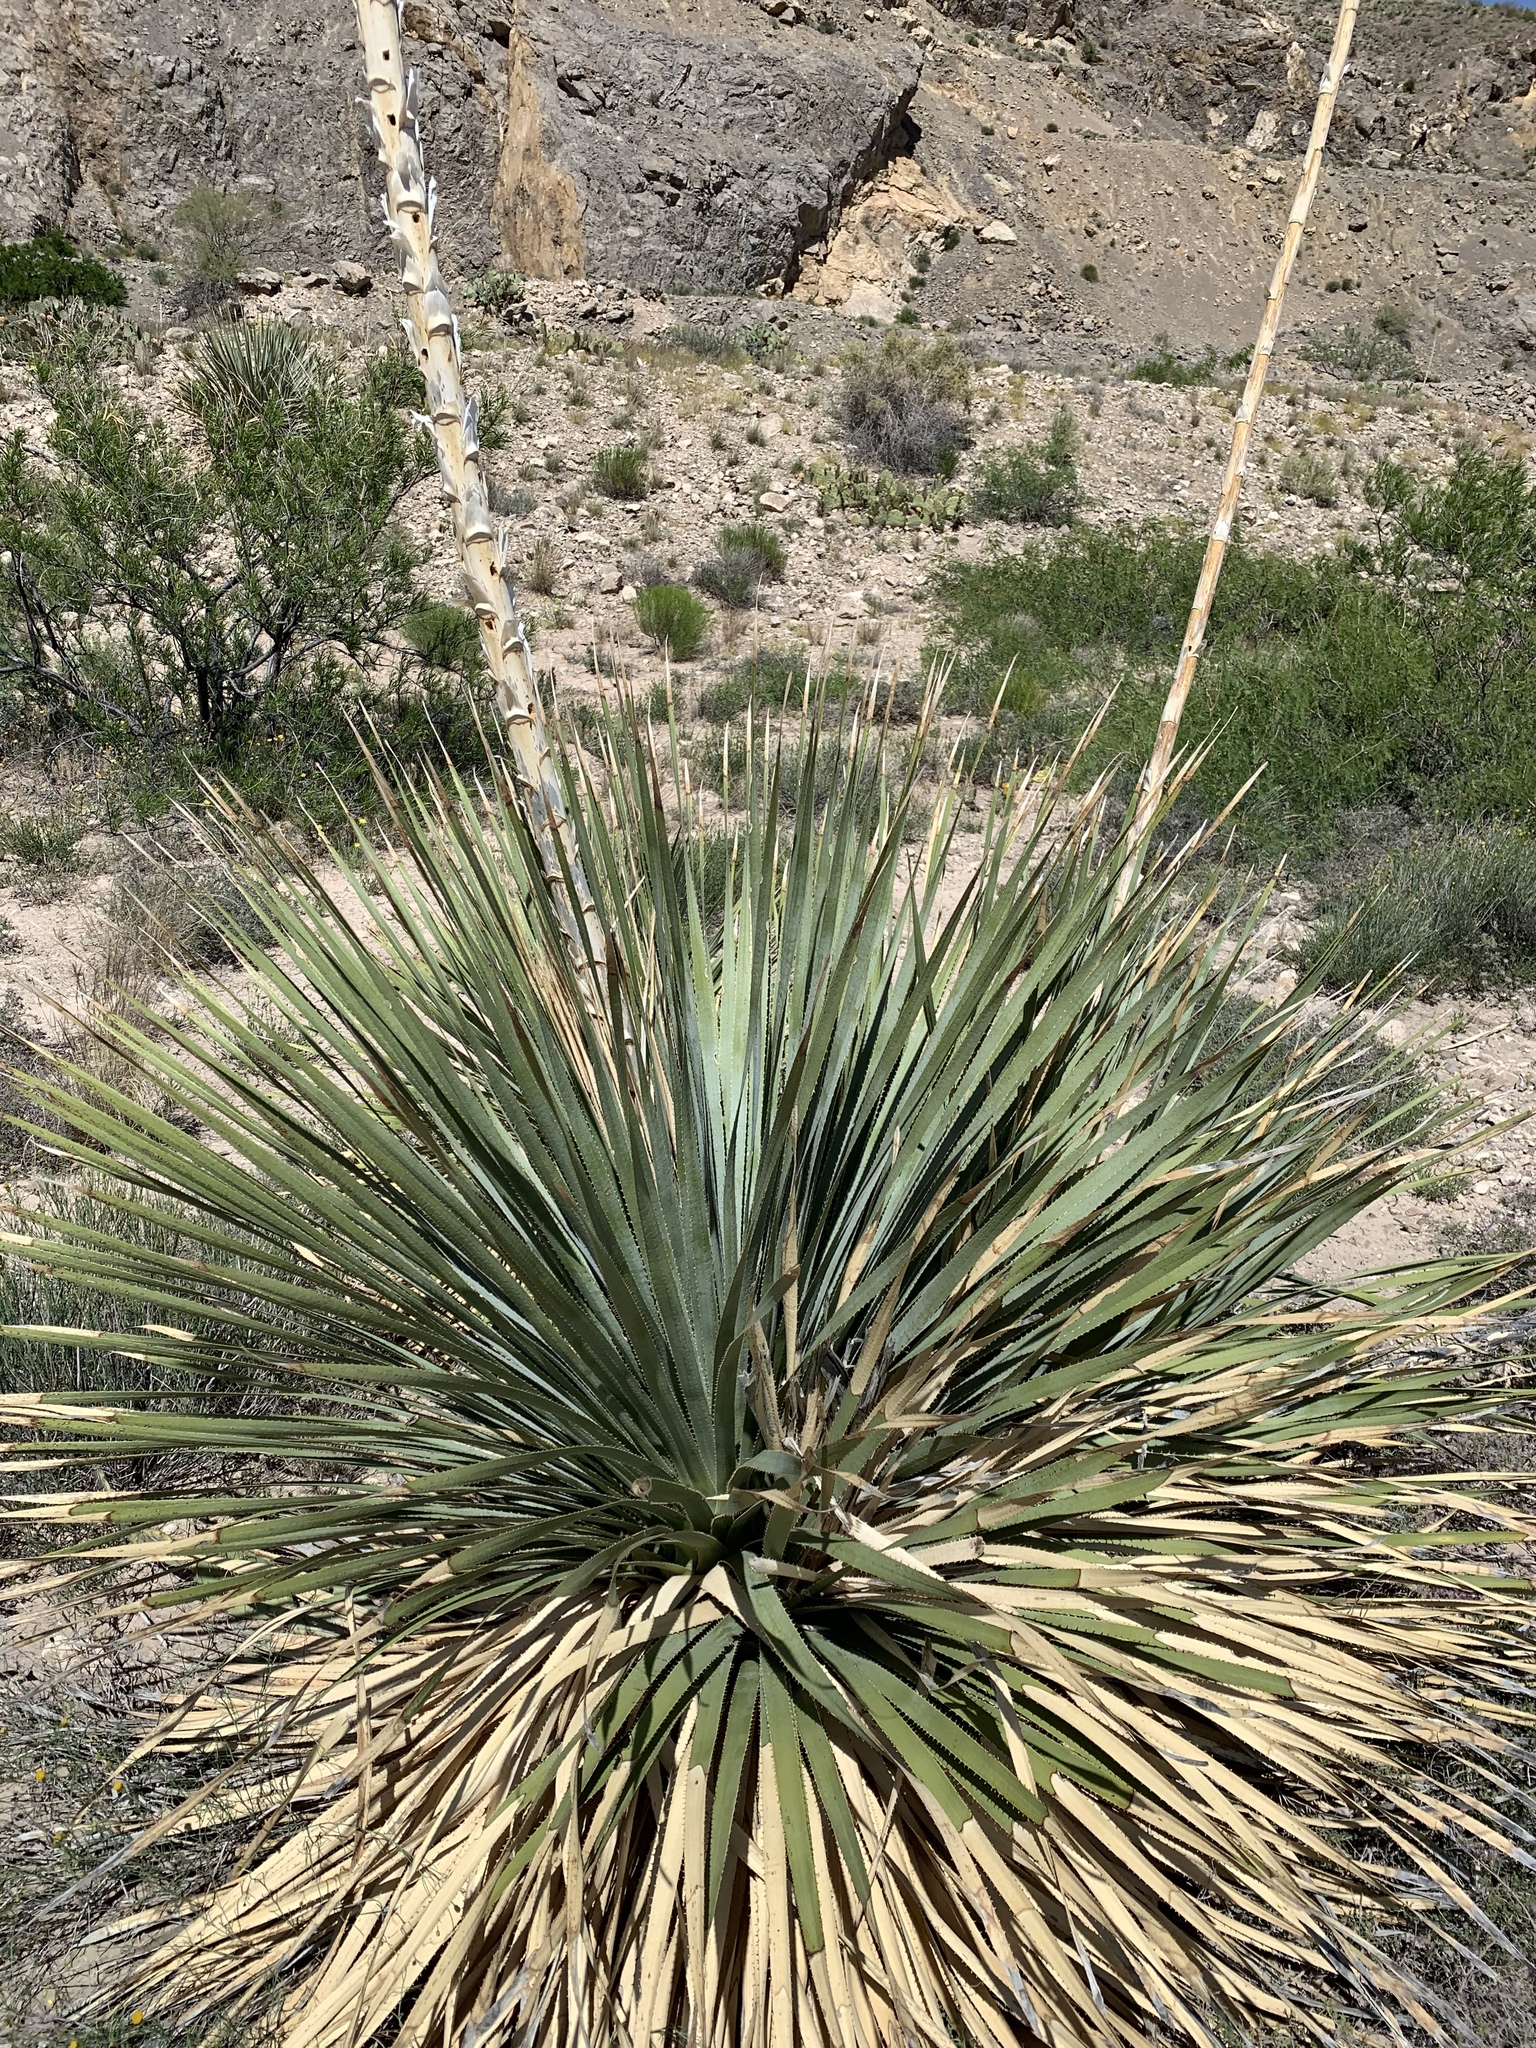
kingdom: Plantae
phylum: Tracheophyta
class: Liliopsida
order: Asparagales
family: Asparagaceae
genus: Dasylirion
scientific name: Dasylirion wheeleri
